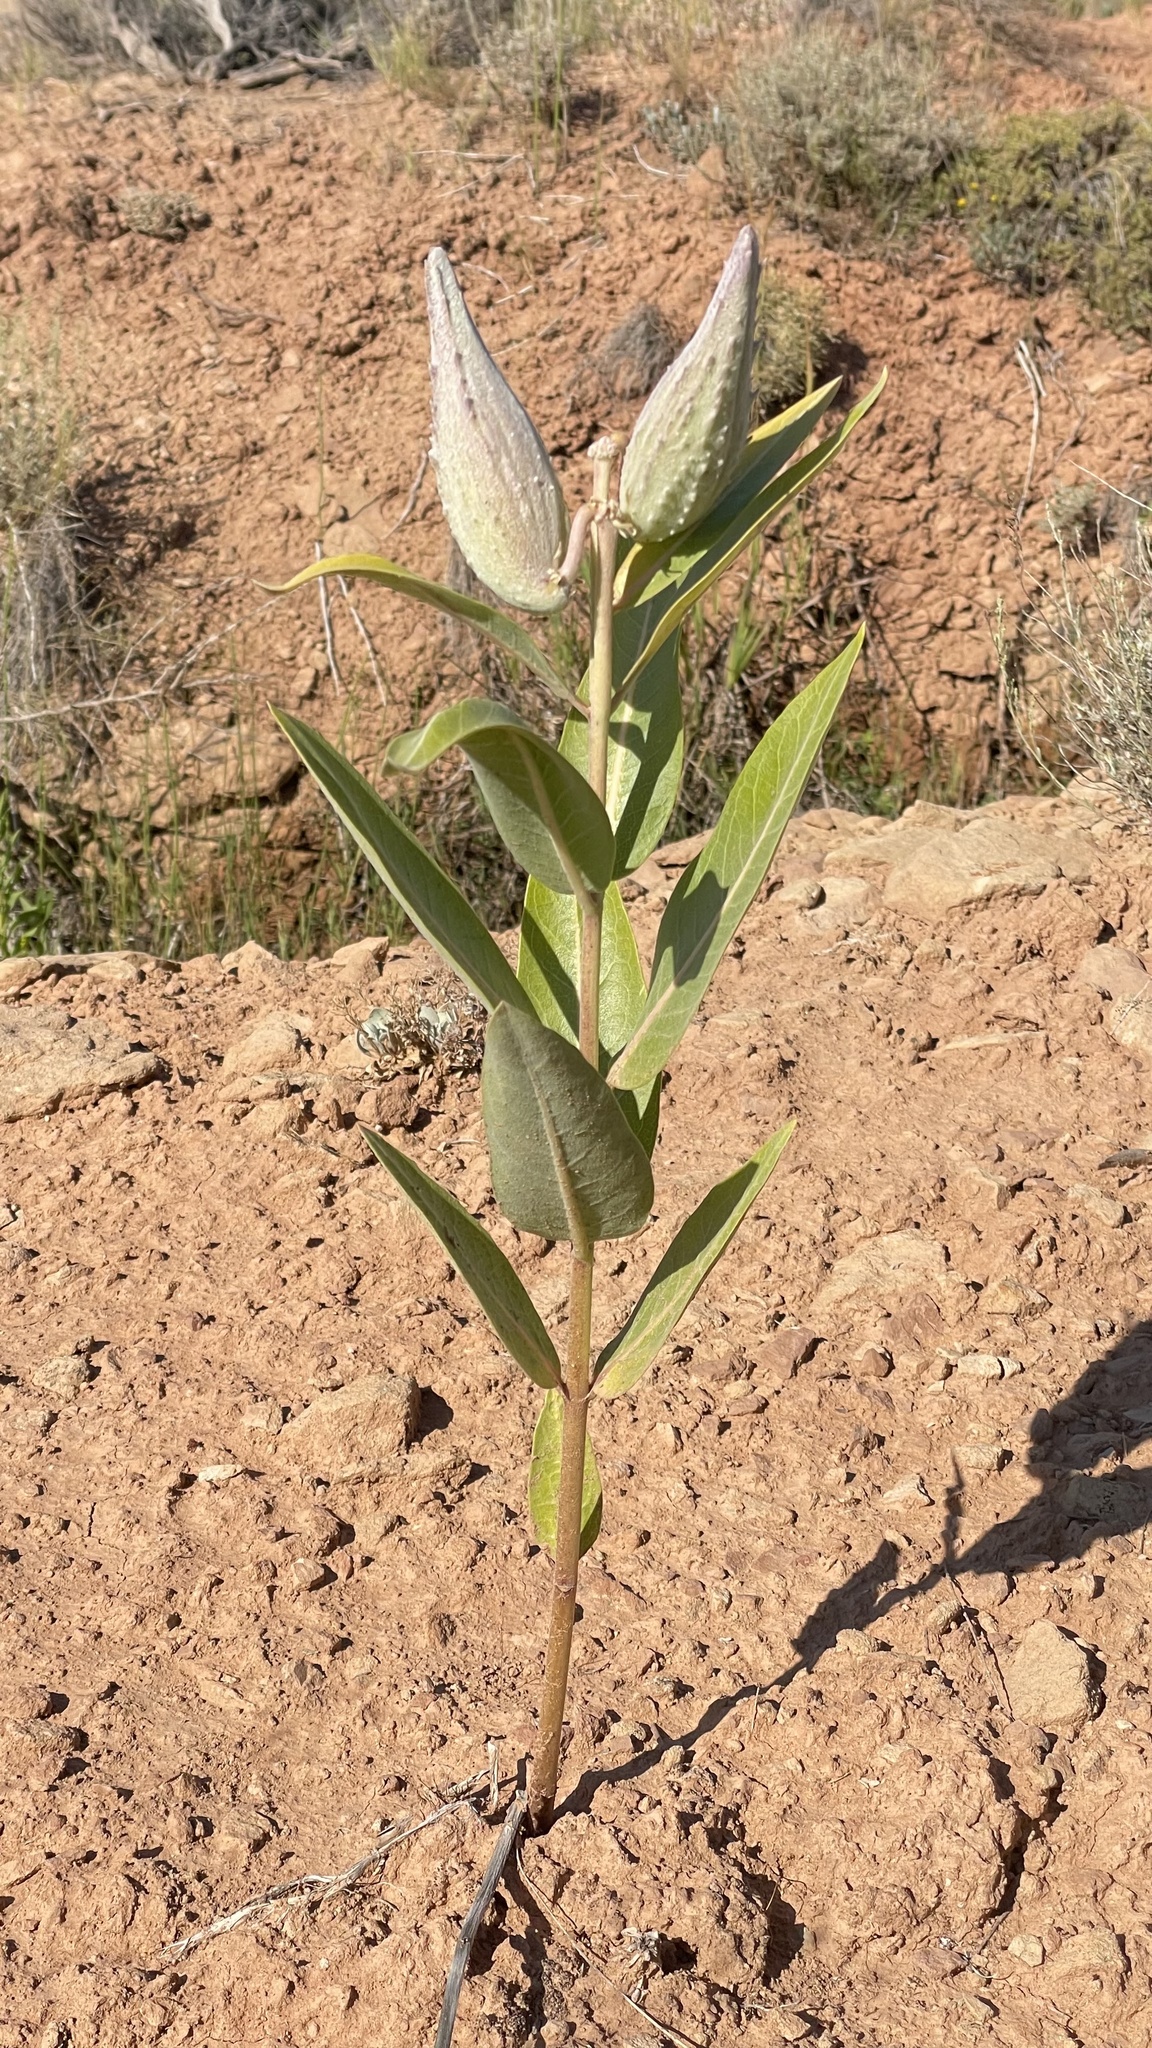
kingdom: Plantae
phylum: Tracheophyta
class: Magnoliopsida
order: Gentianales
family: Apocynaceae
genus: Asclepias
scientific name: Asclepias speciosa
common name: Showy milkweed
